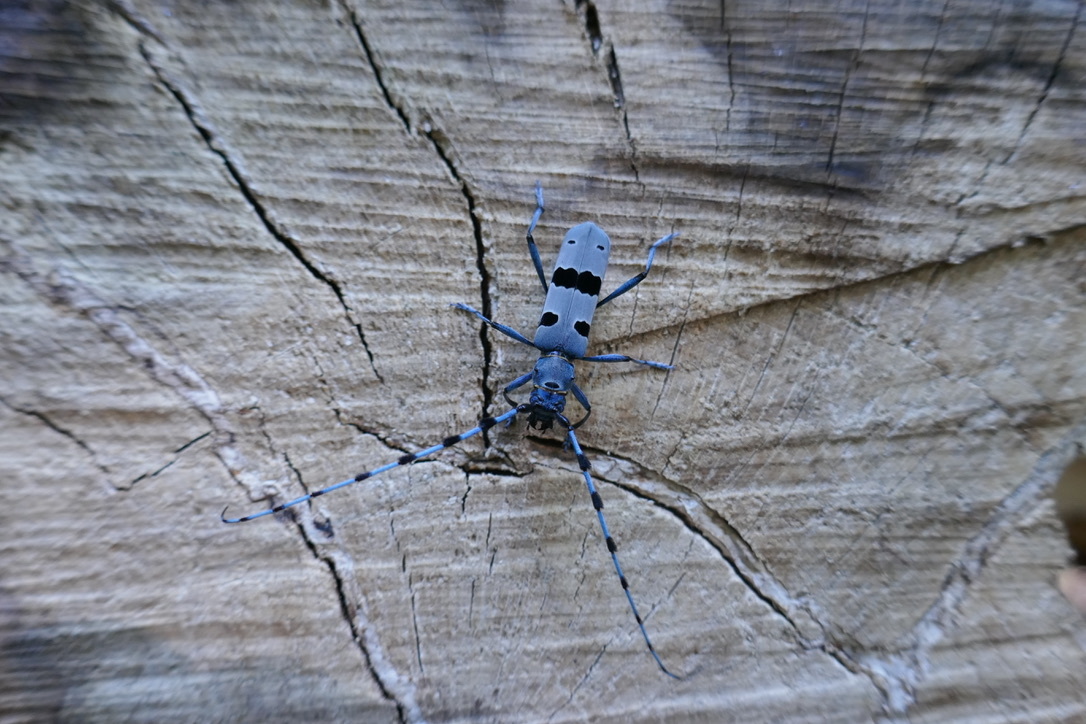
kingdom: Animalia
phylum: Arthropoda
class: Insecta
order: Coleoptera
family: Cerambycidae
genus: Rosalia
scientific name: Rosalia alpina
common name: Rosalia longicorn
